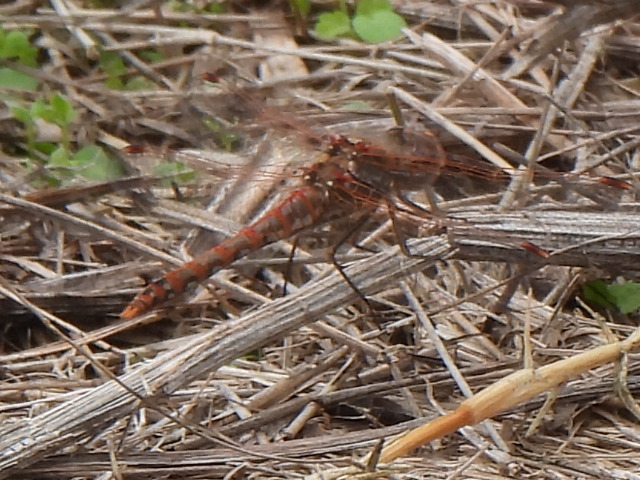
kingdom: Animalia
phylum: Arthropoda
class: Insecta
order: Odonata
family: Libellulidae
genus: Sympetrum
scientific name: Sympetrum corruptum
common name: Variegated meadowhawk
